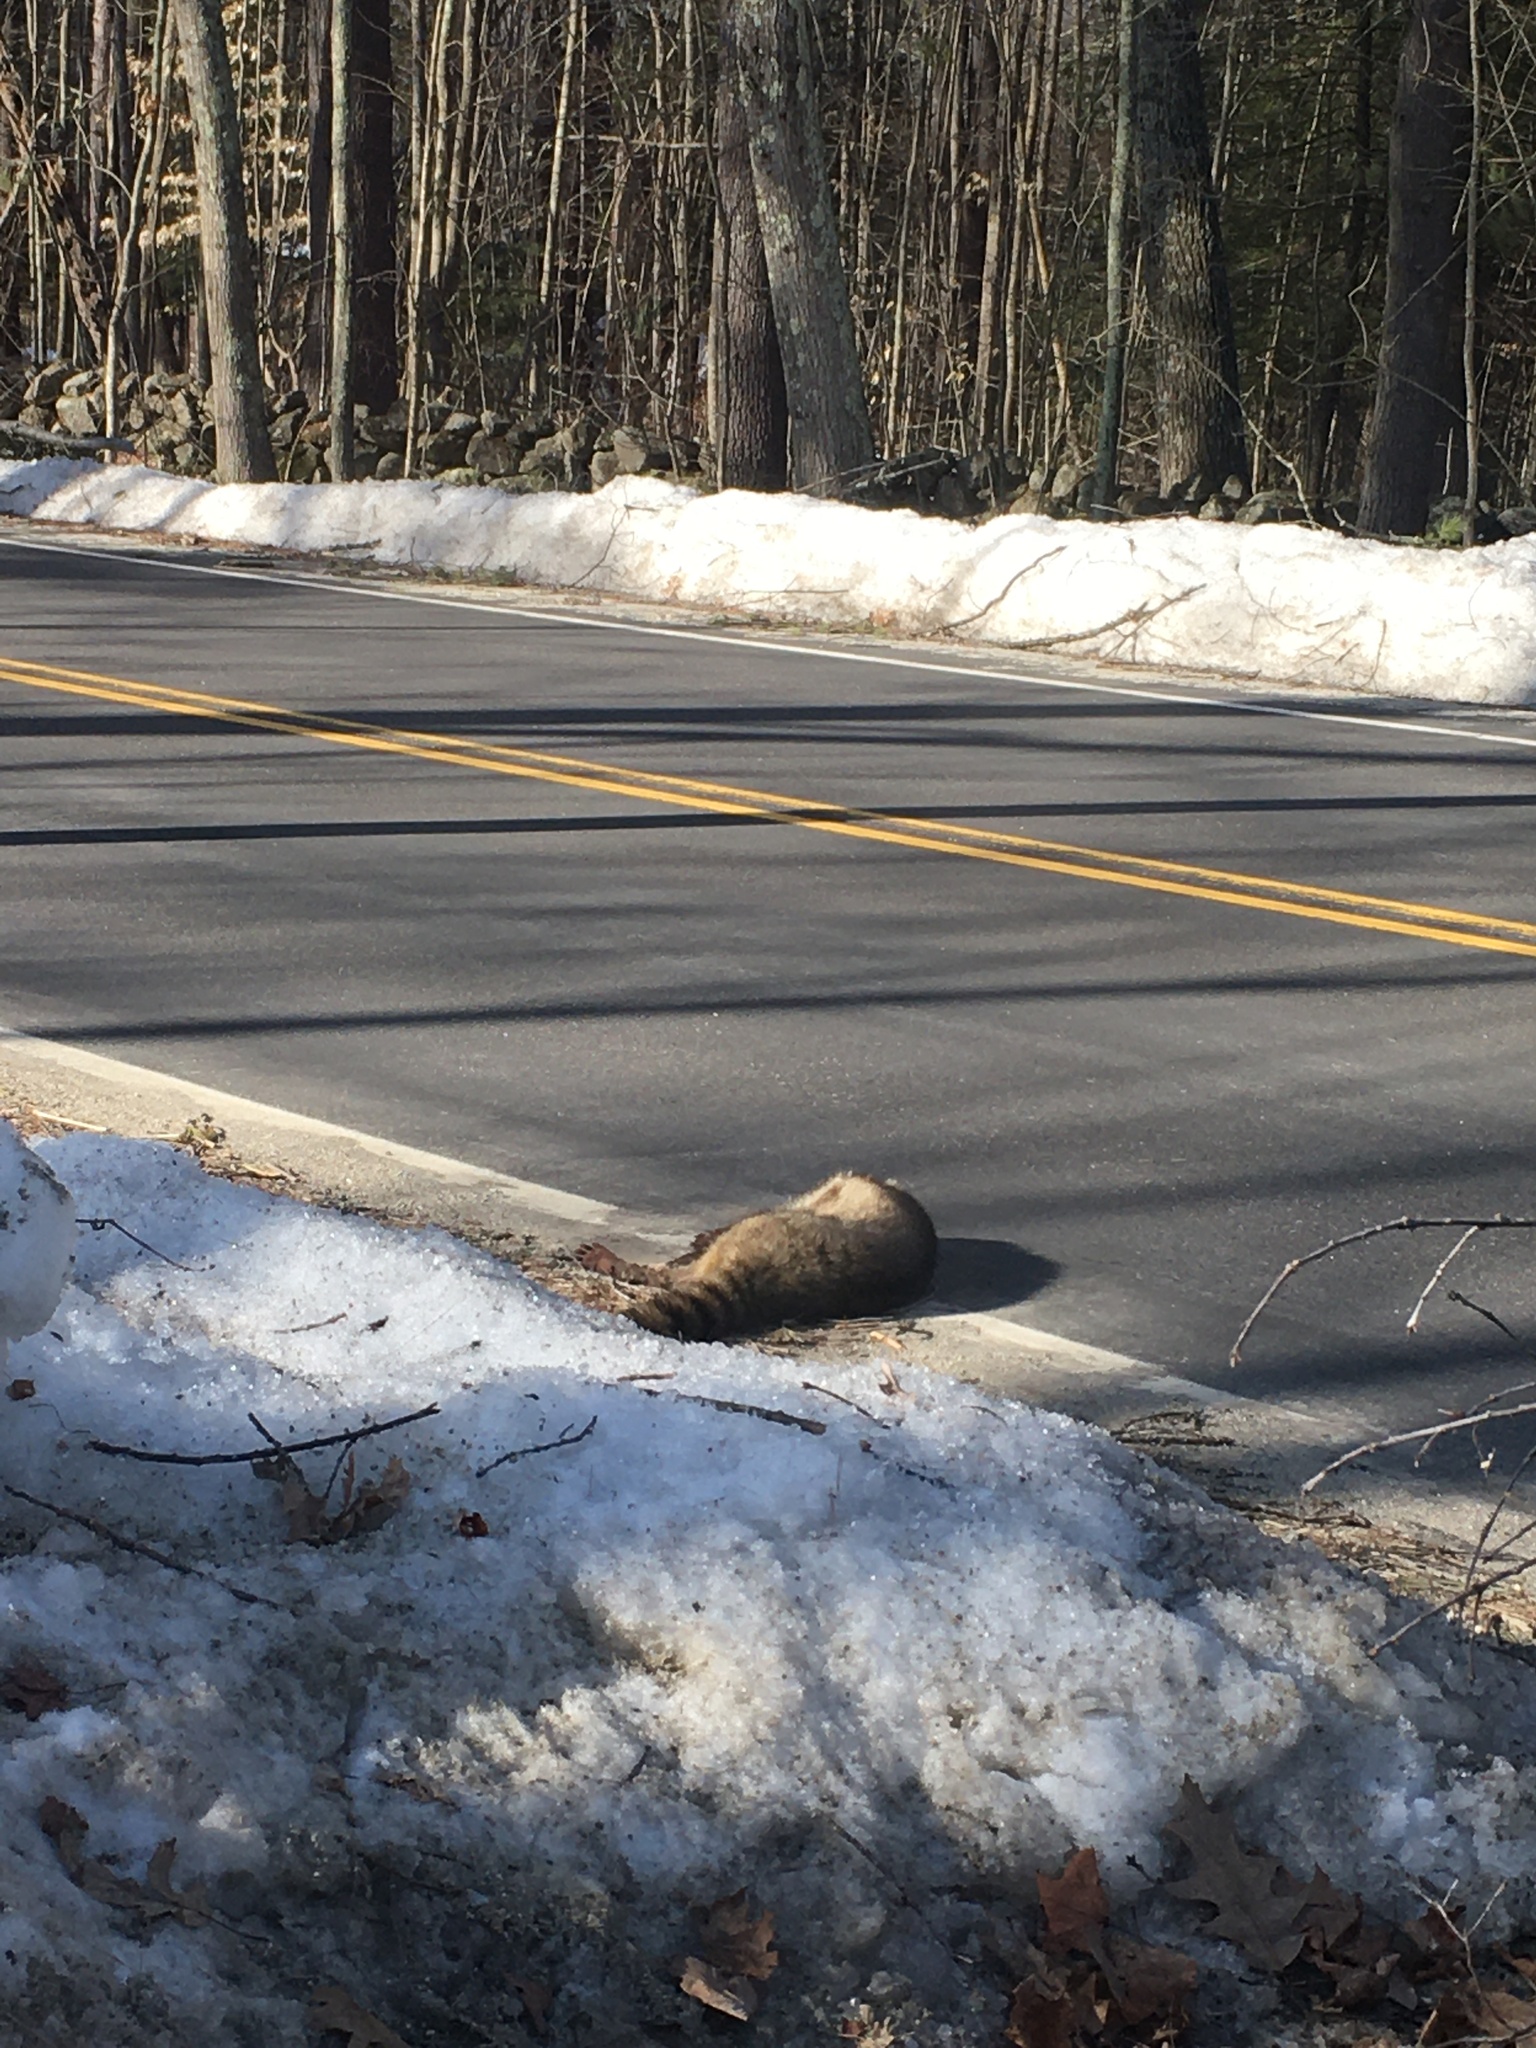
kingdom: Animalia
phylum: Chordata
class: Mammalia
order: Carnivora
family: Procyonidae
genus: Procyon
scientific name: Procyon lotor
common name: Raccoon
